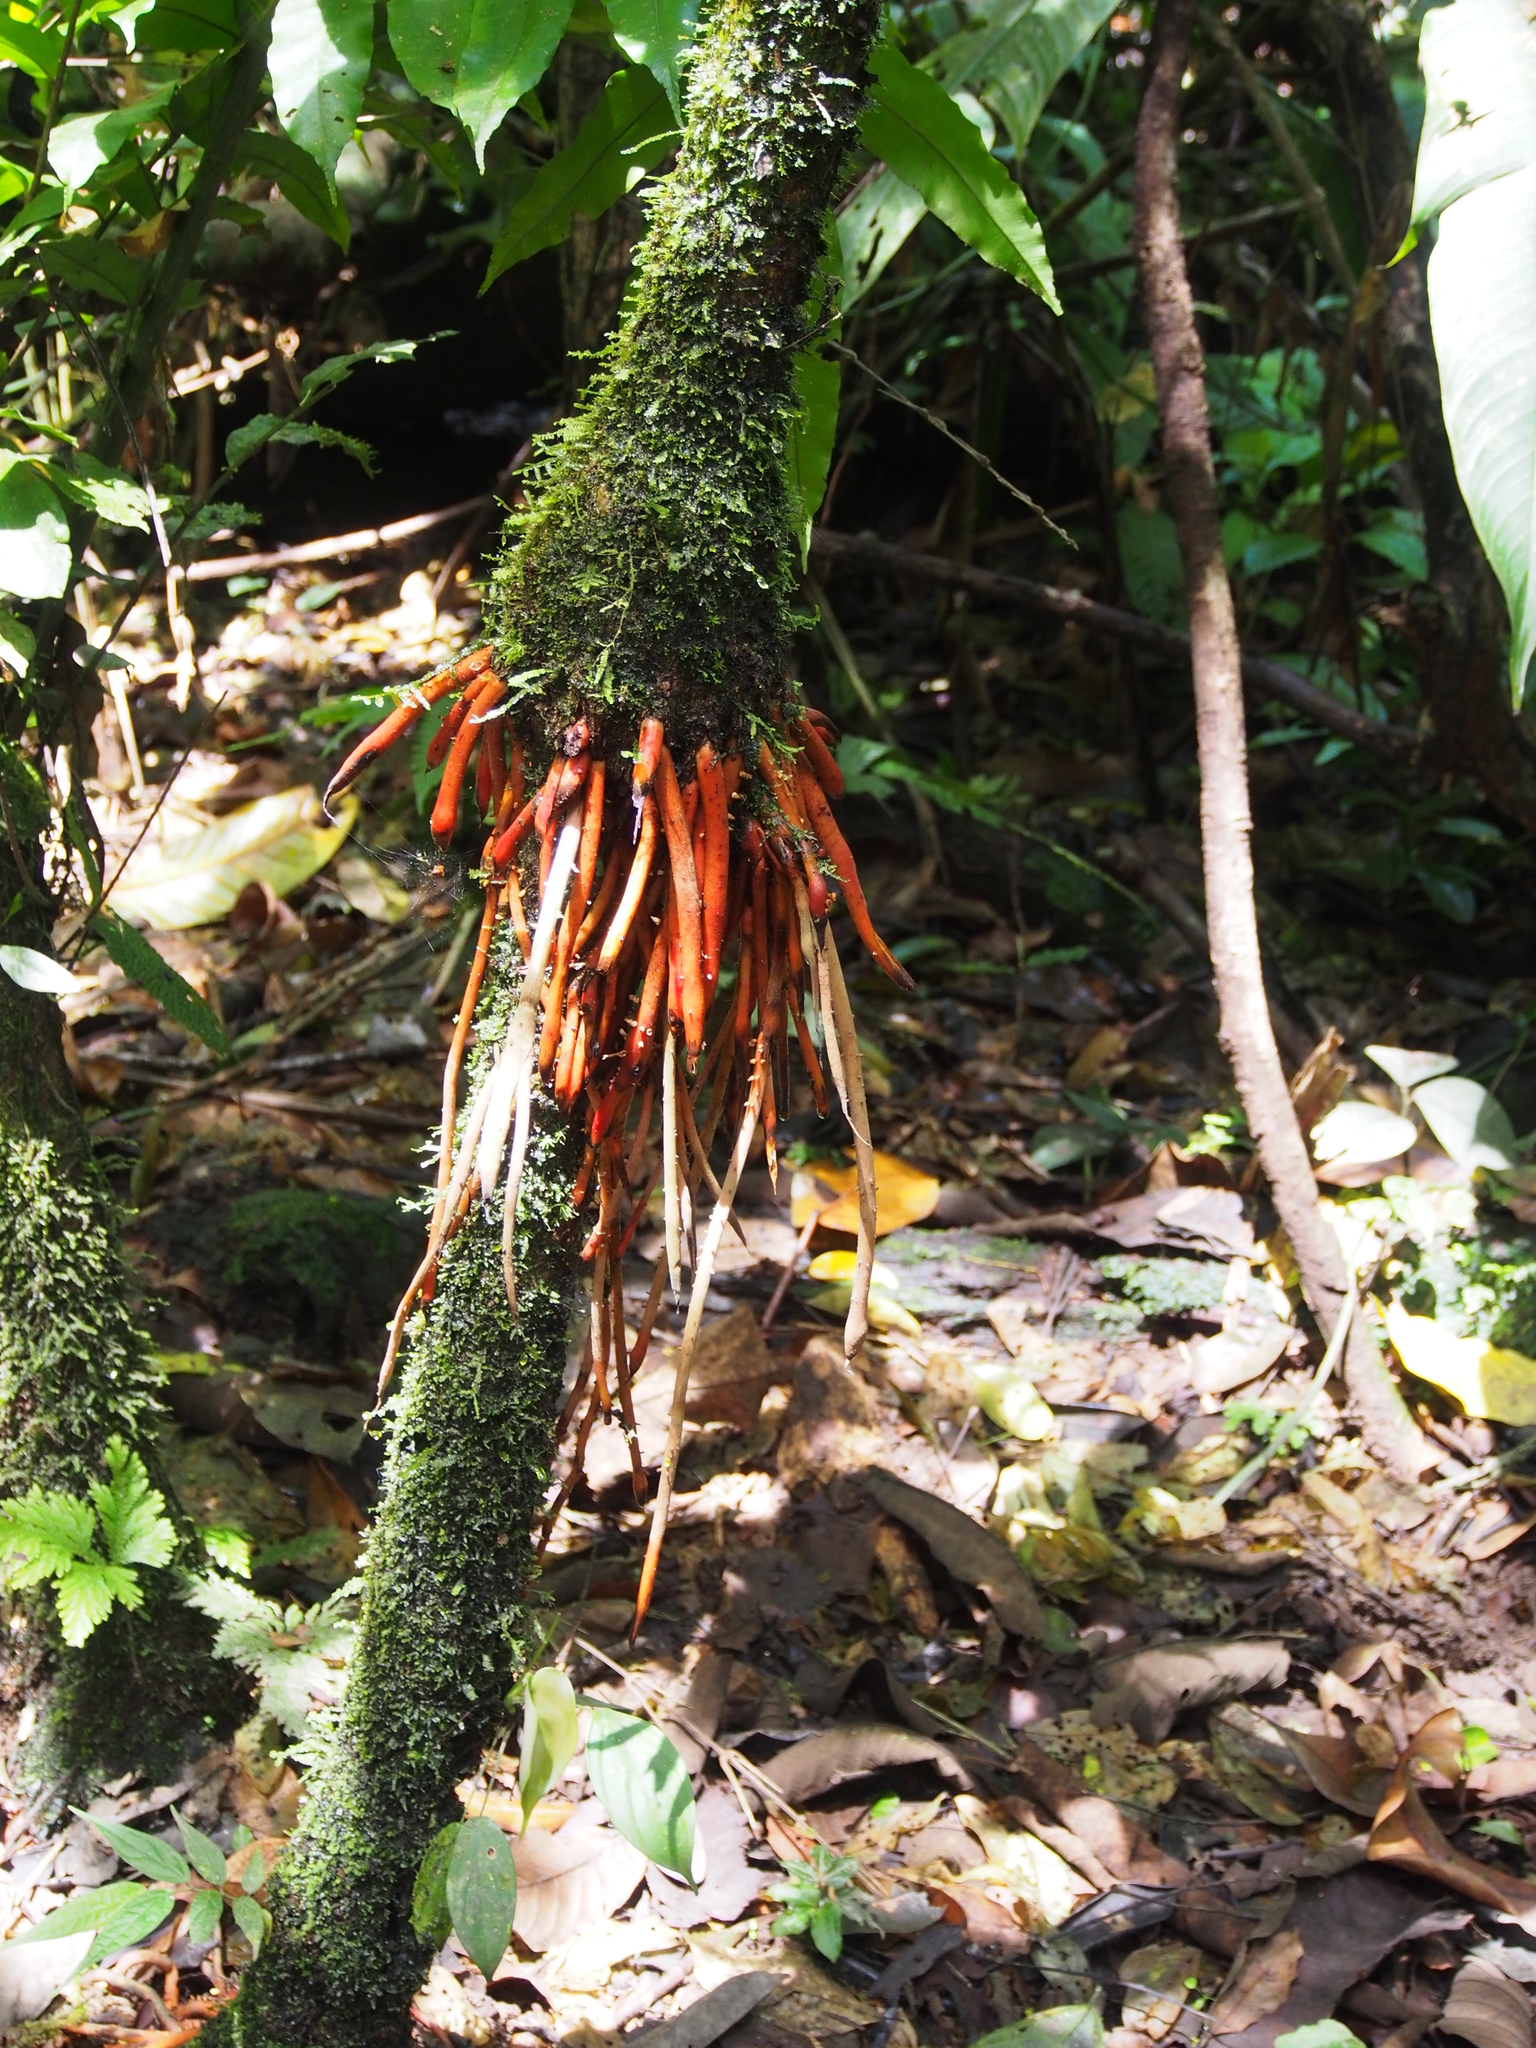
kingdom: Plantae
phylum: Tracheophyta
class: Liliopsida
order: Arecales
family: Arecaceae
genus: Euterpe
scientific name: Euterpe precatoria
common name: Mountain-cabbage
